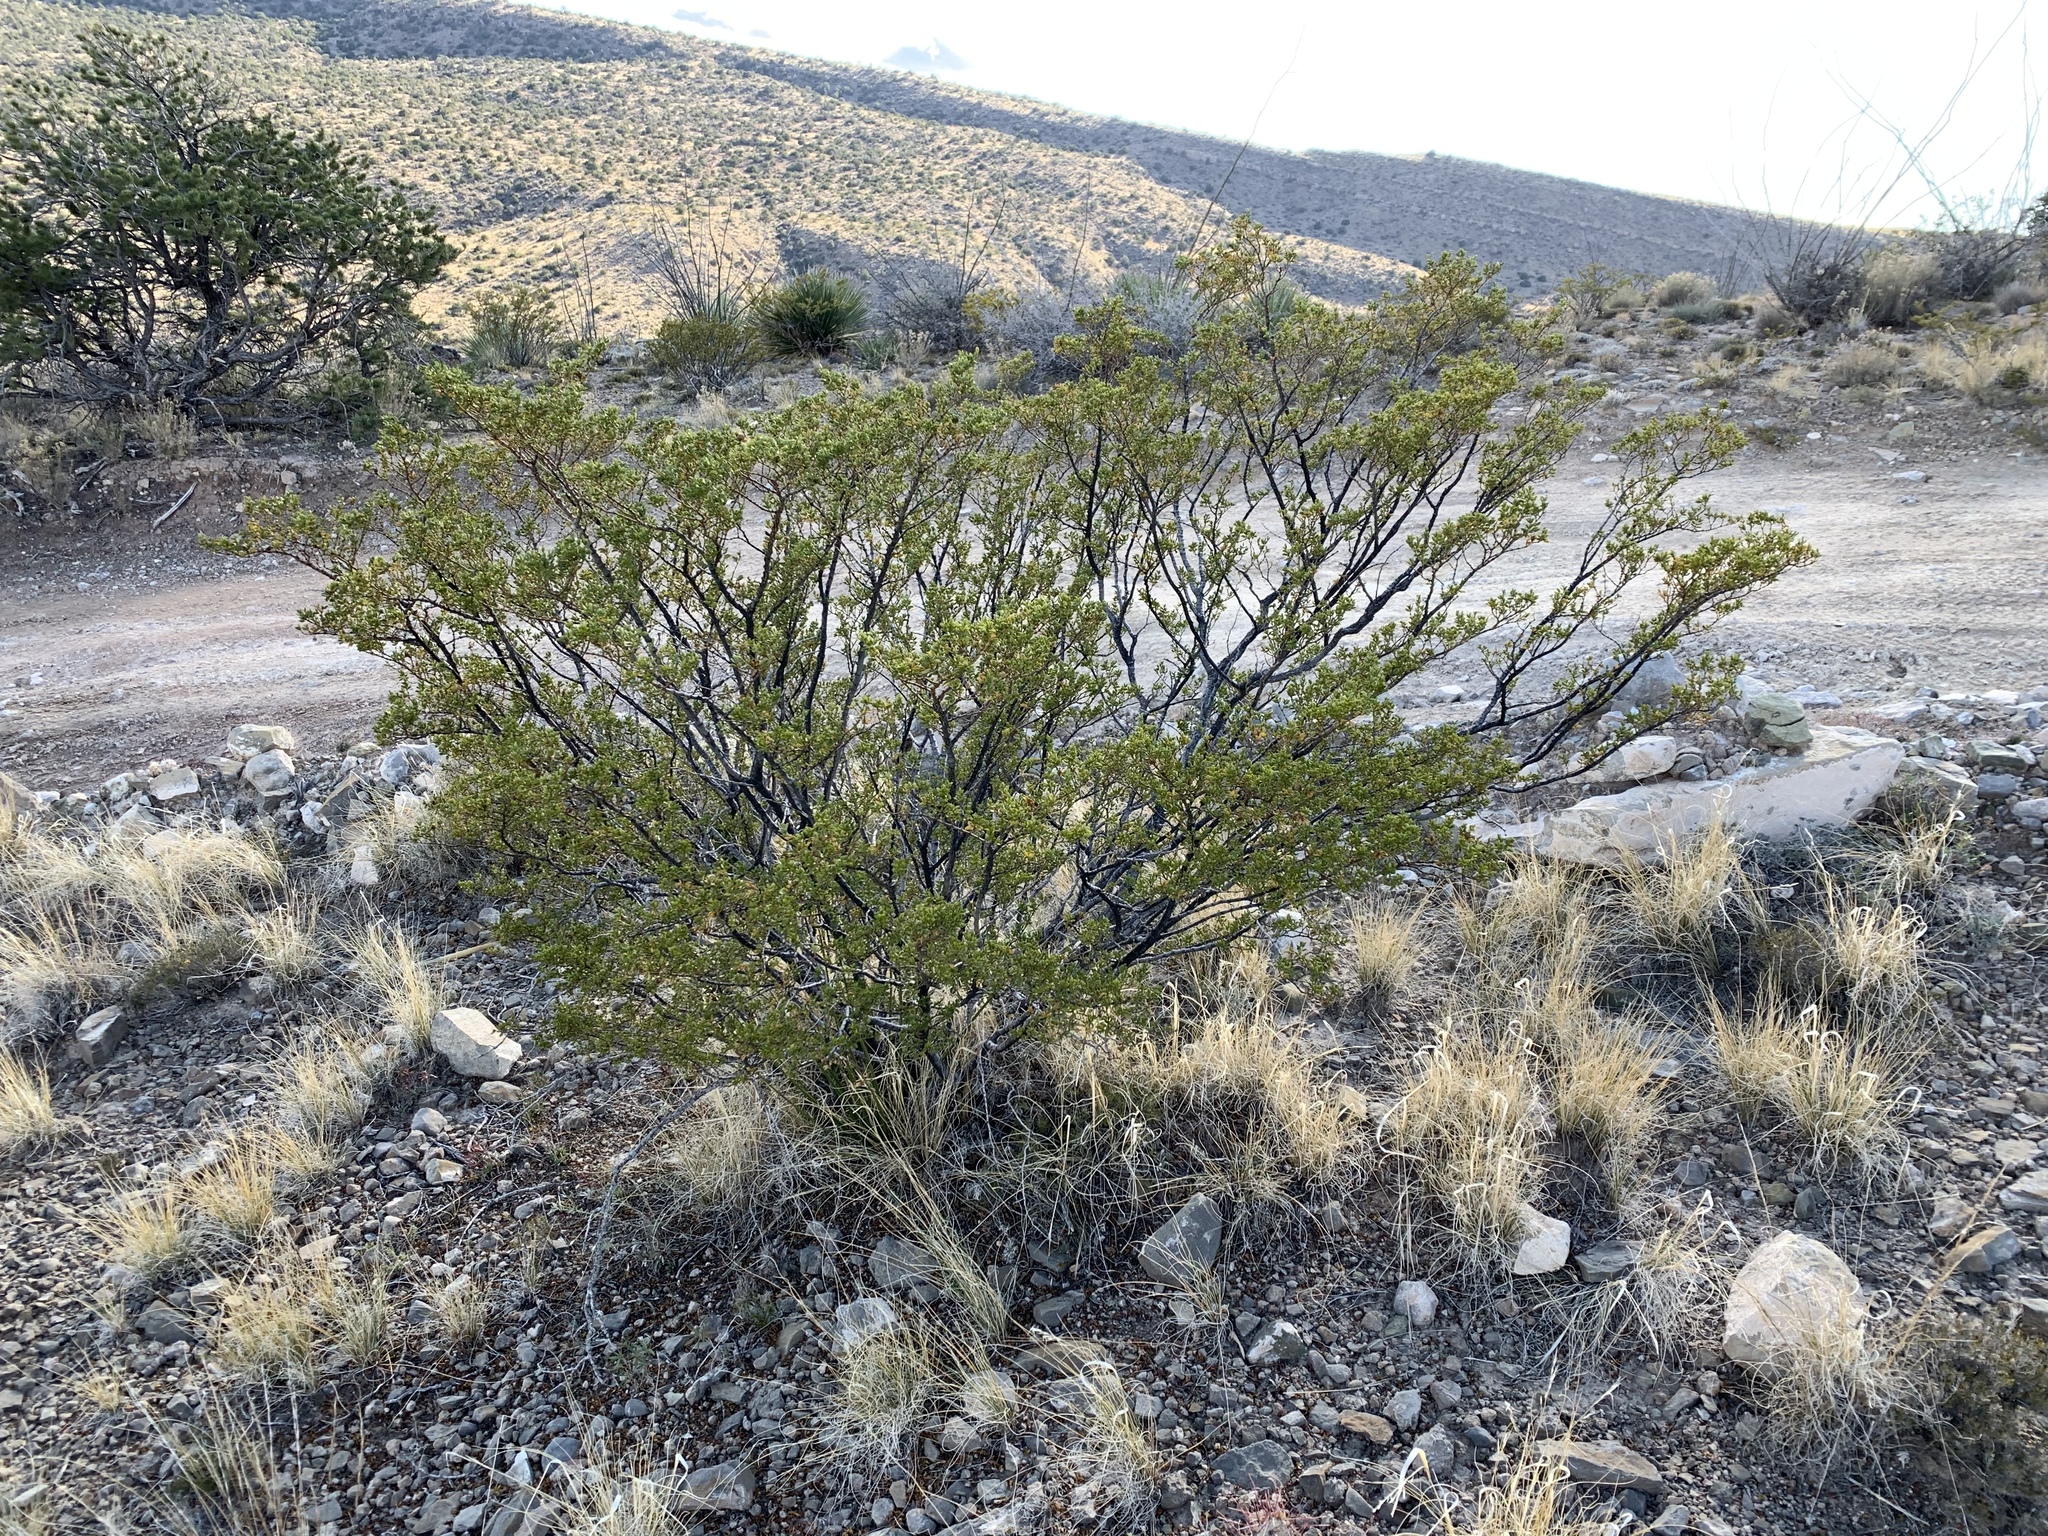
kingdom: Plantae
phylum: Tracheophyta
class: Magnoliopsida
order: Zygophyllales
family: Zygophyllaceae
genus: Larrea
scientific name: Larrea tridentata
